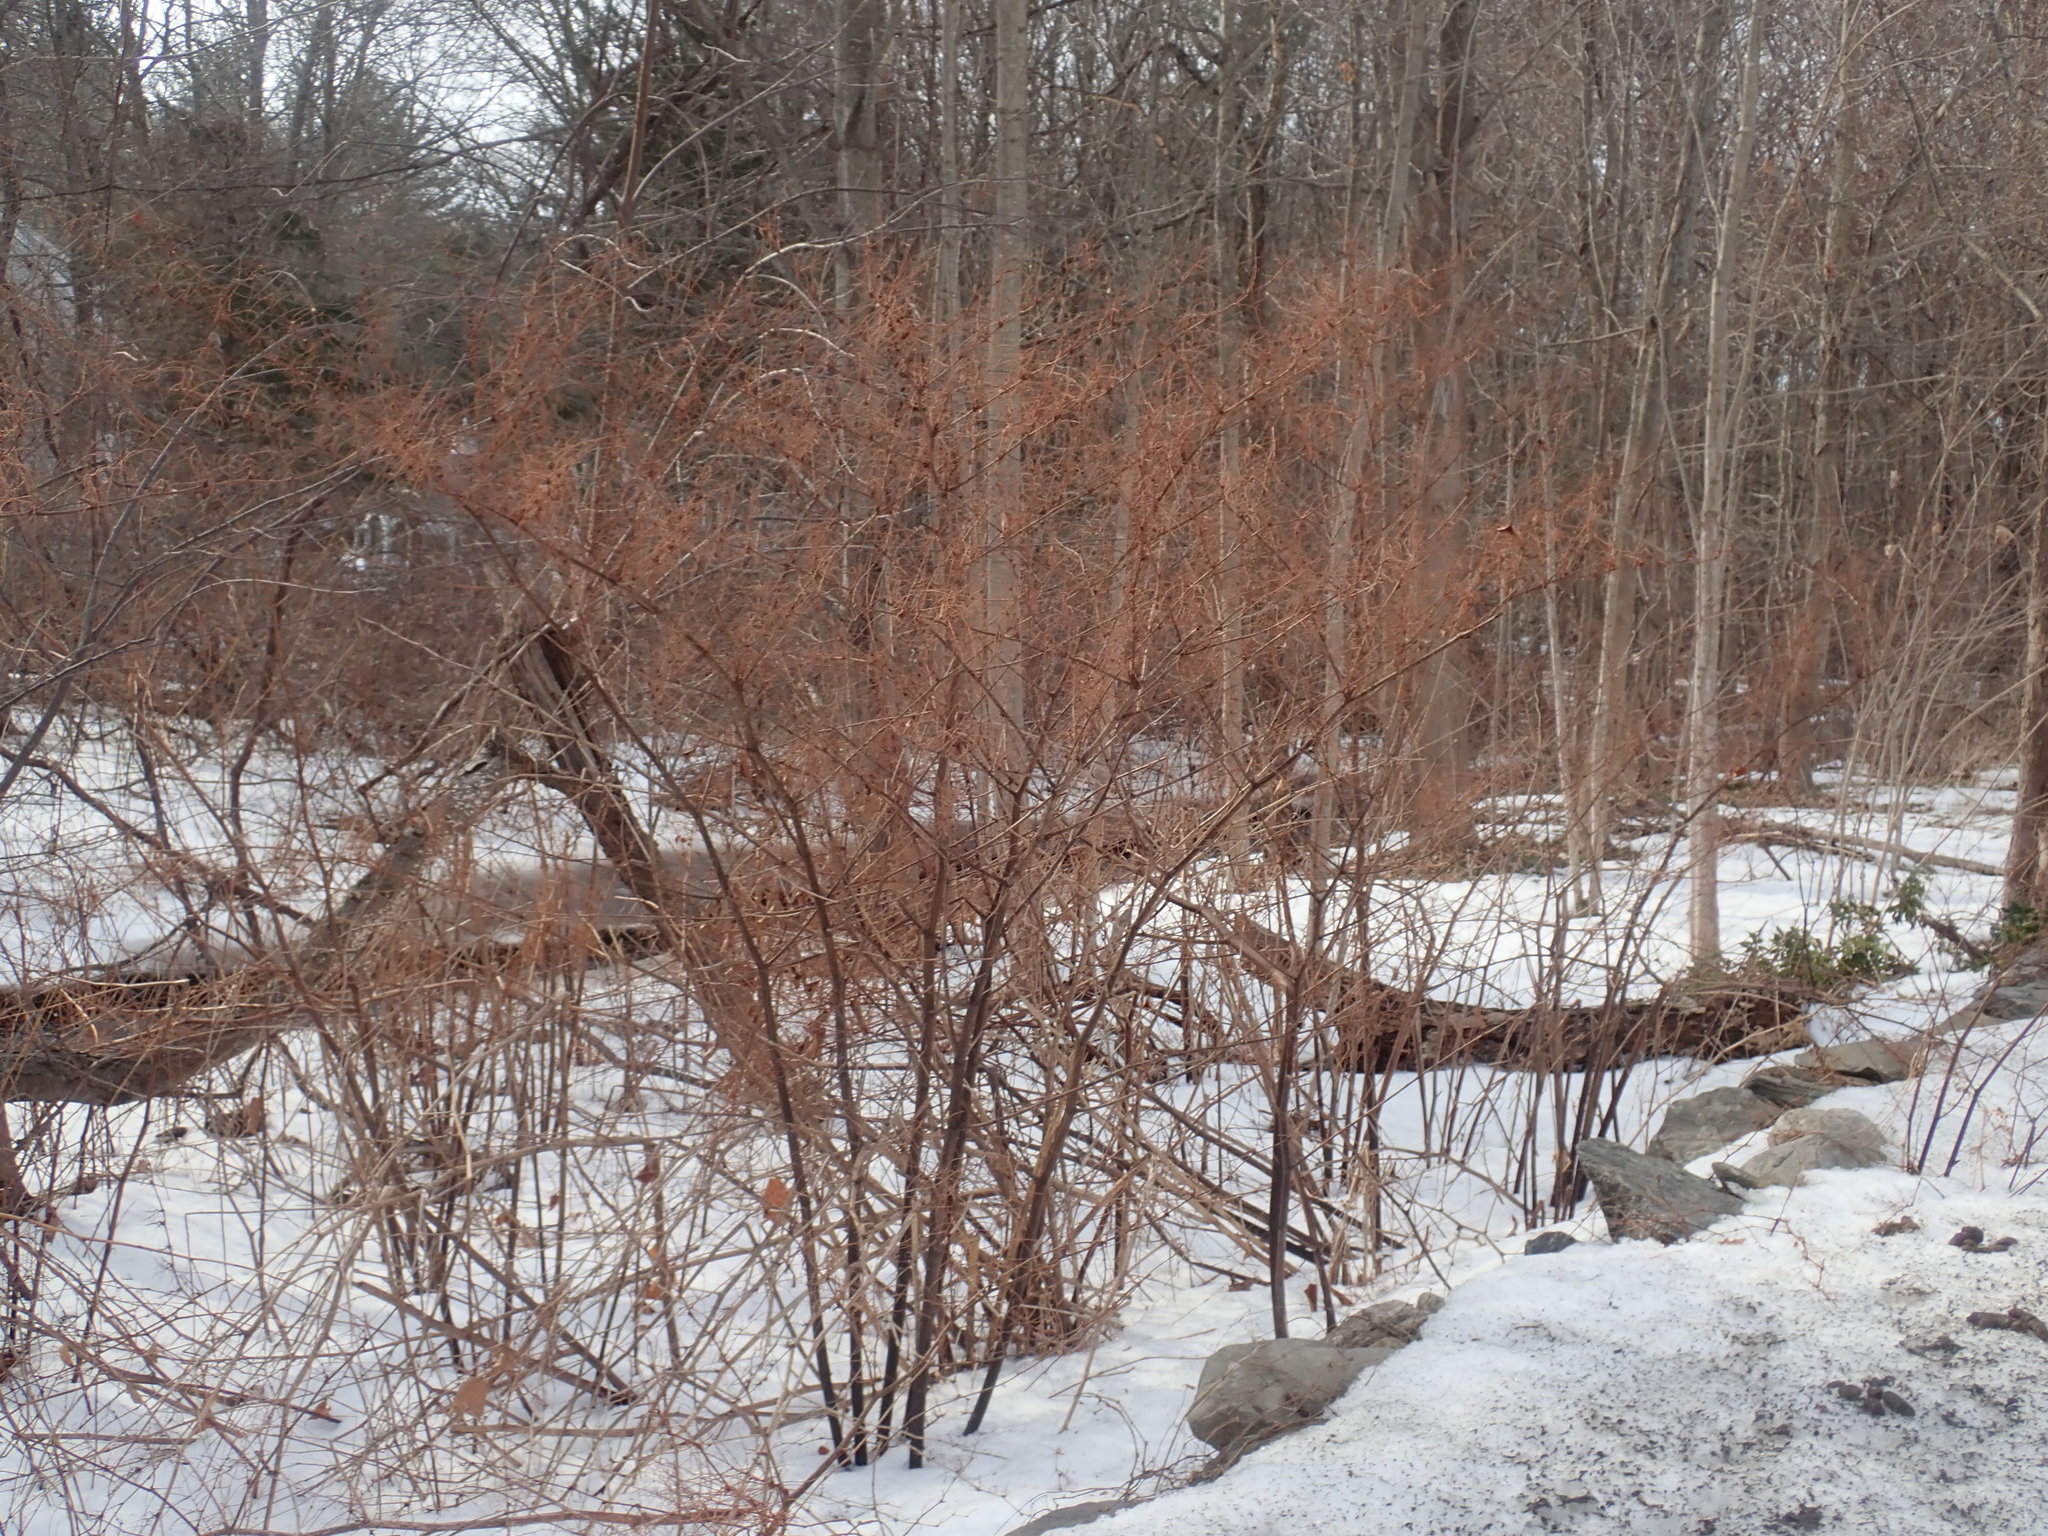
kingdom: Plantae
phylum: Tracheophyta
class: Magnoliopsida
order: Caryophyllales
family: Polygonaceae
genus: Reynoutria
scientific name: Reynoutria
